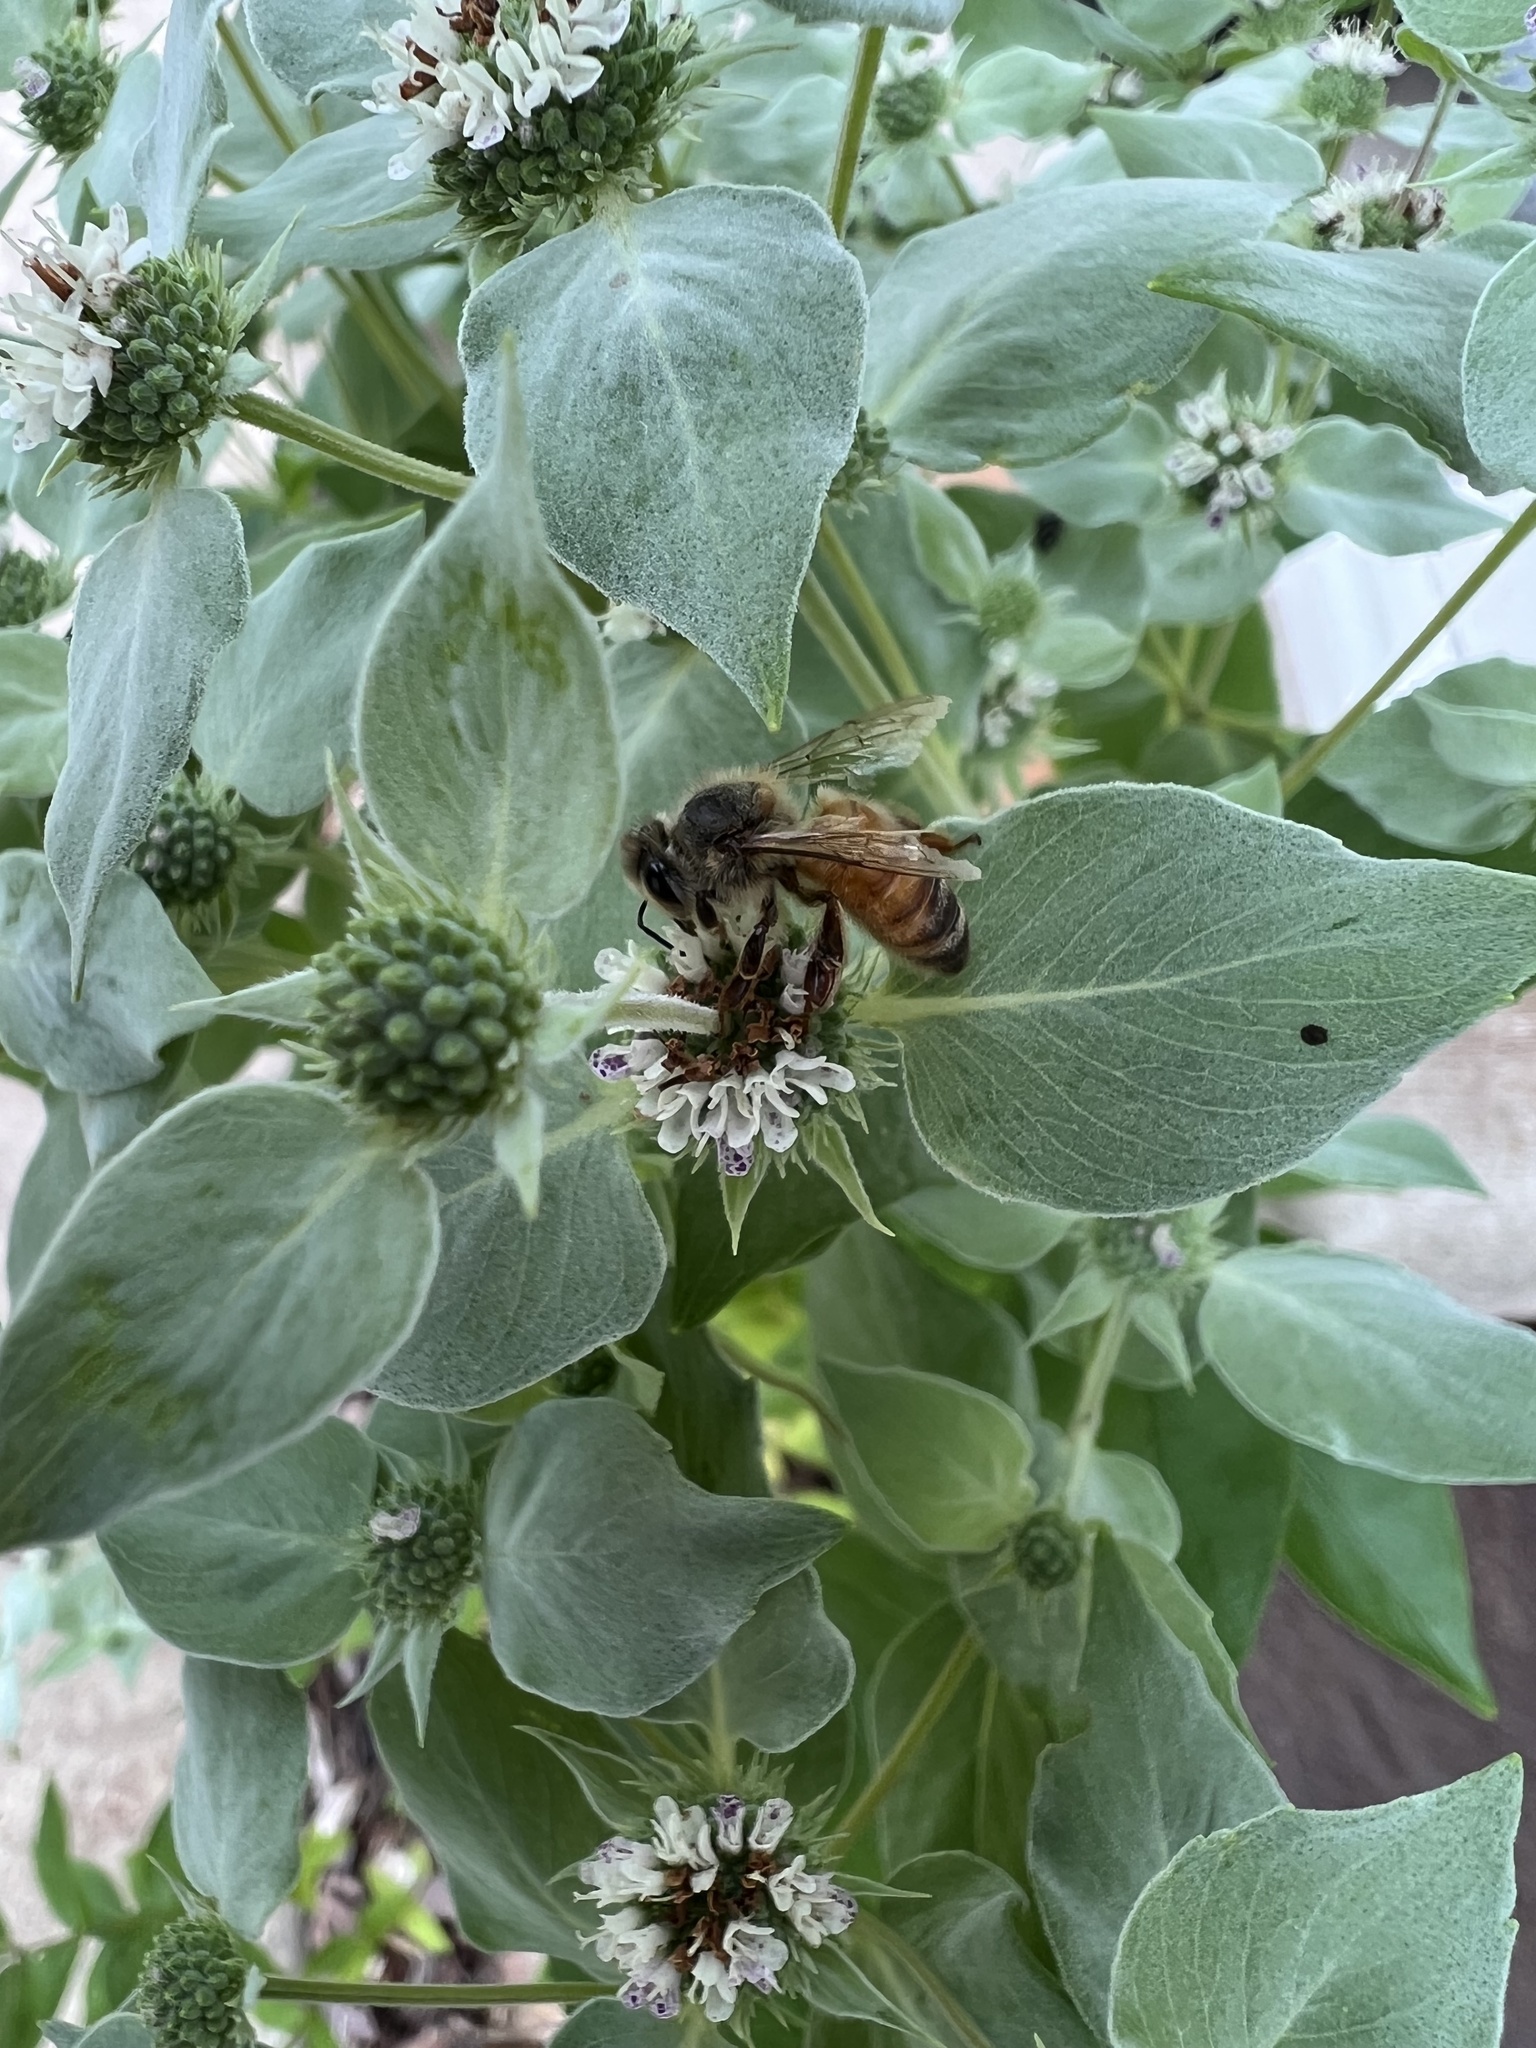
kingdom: Animalia
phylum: Arthropoda
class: Insecta
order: Hymenoptera
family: Apidae
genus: Apis
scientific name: Apis mellifera
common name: Honey bee
